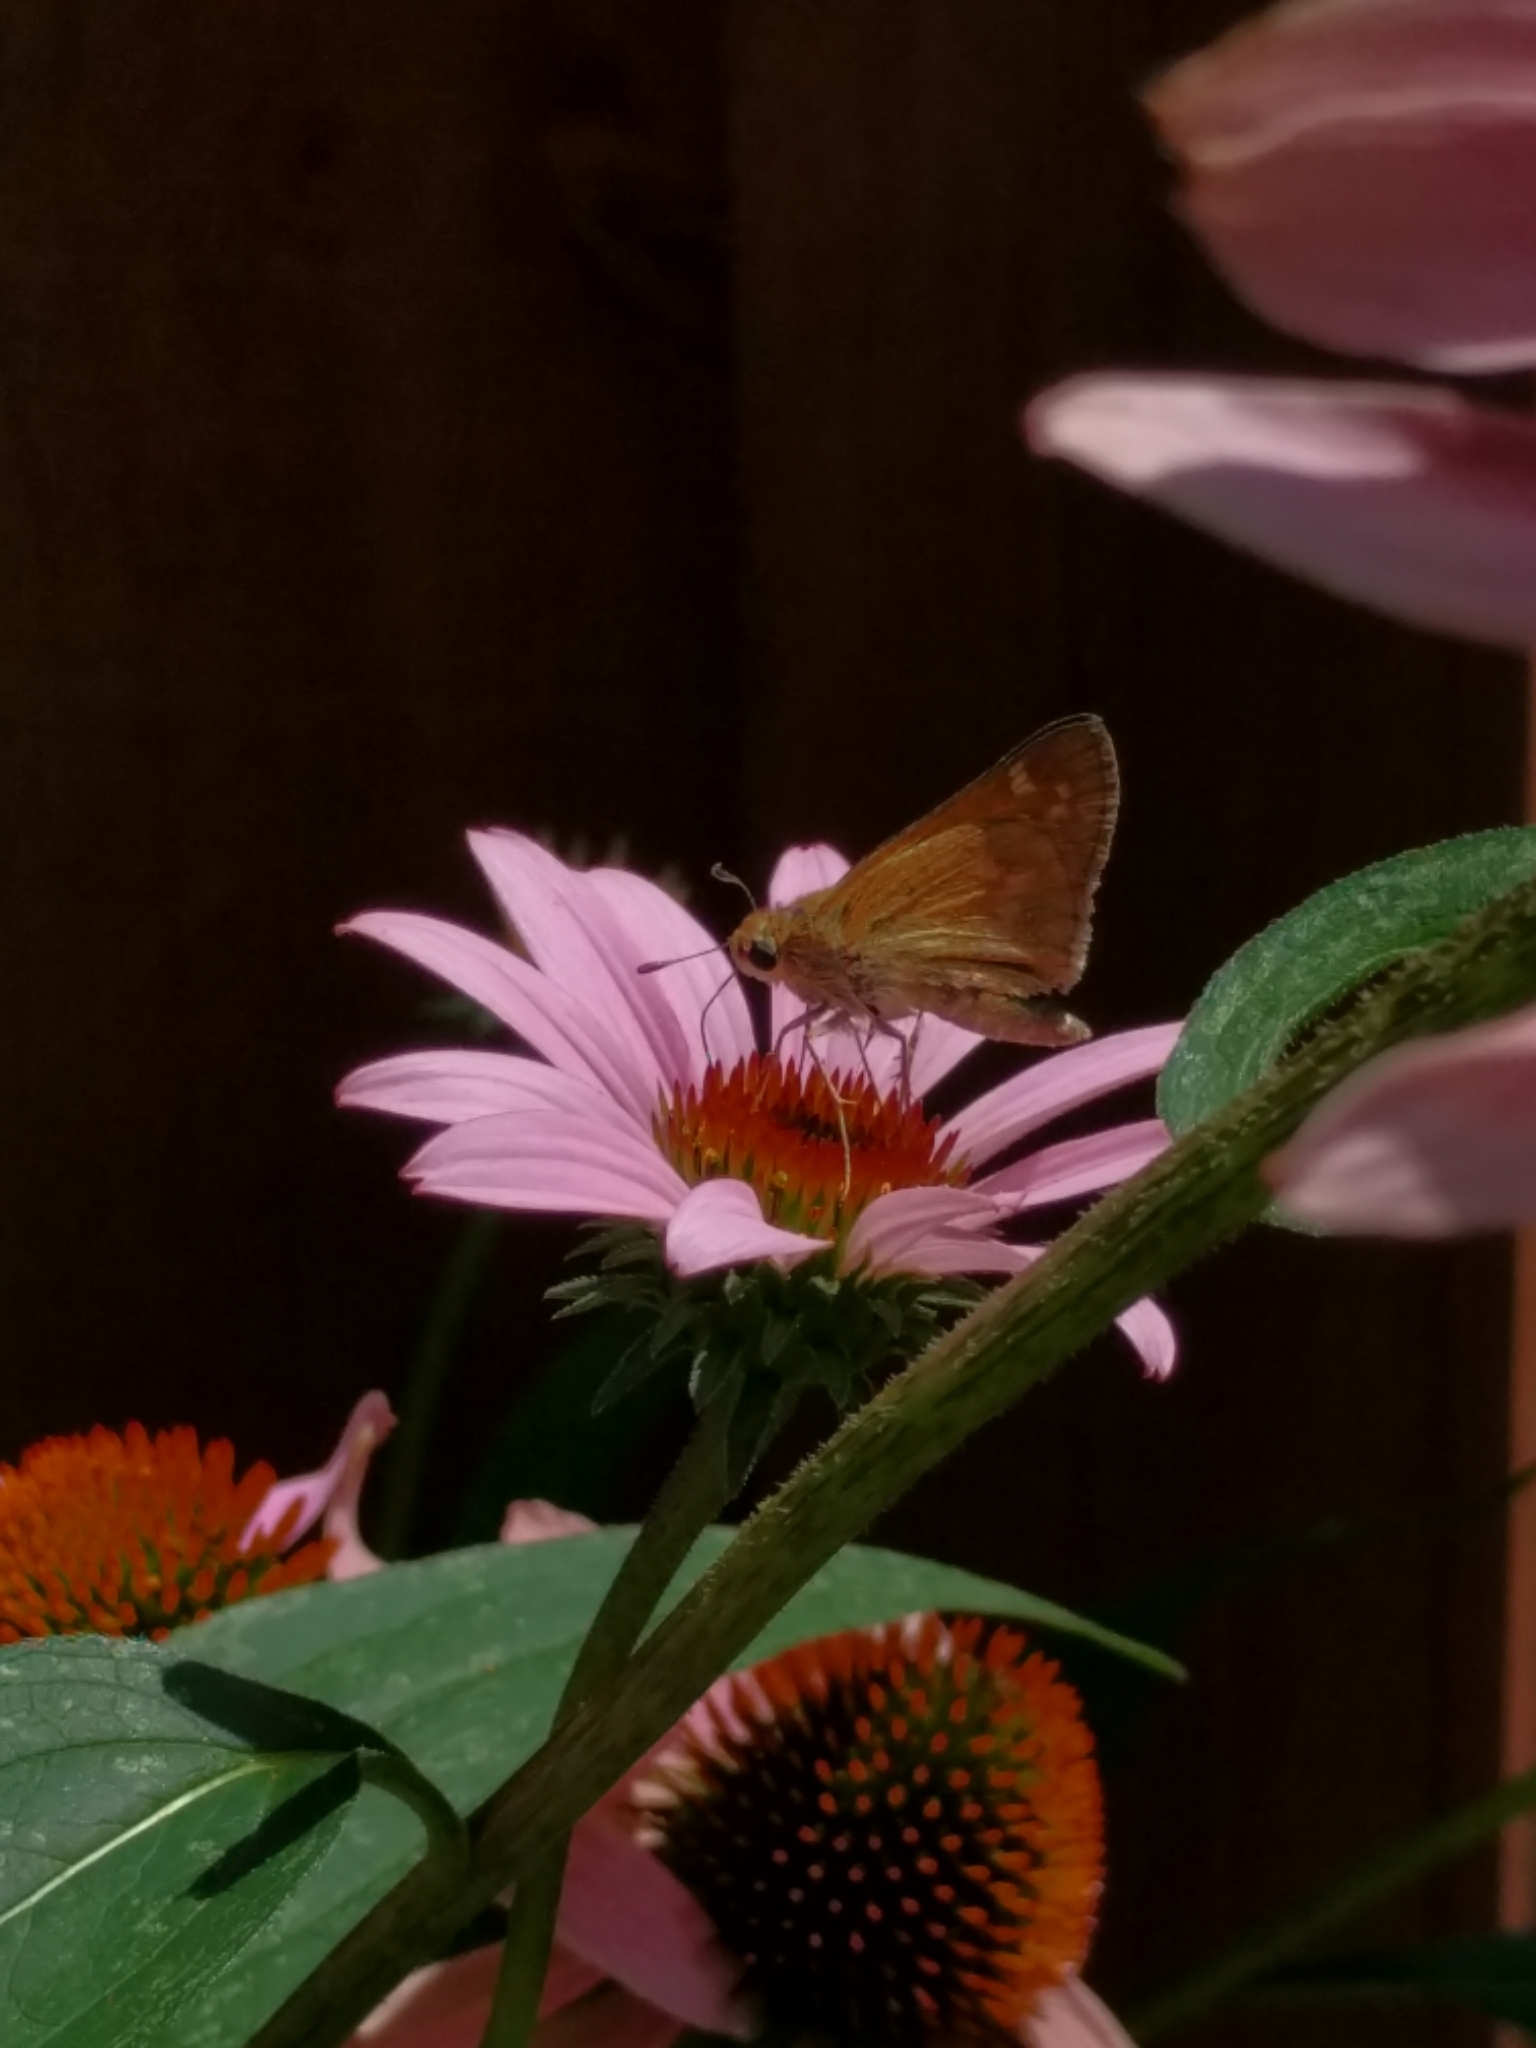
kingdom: Animalia
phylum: Arthropoda
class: Insecta
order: Lepidoptera
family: Hesperiidae
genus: Atalopedes
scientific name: Atalopedes
